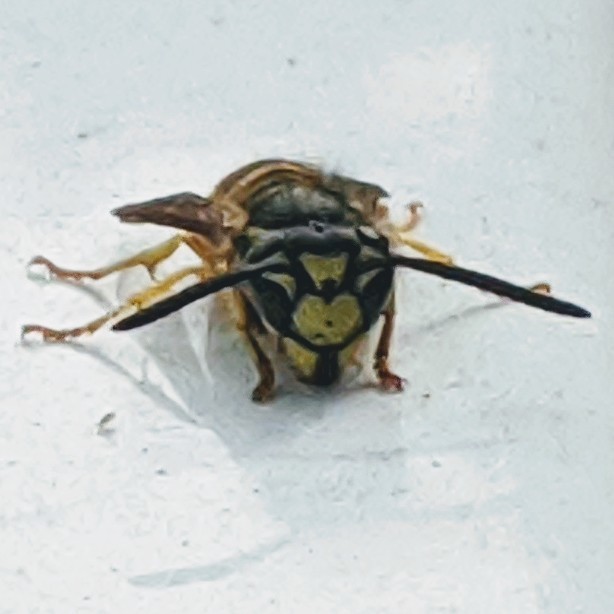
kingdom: Animalia
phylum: Arthropoda
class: Insecta
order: Hymenoptera
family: Vespidae
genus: Vespula
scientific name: Vespula
